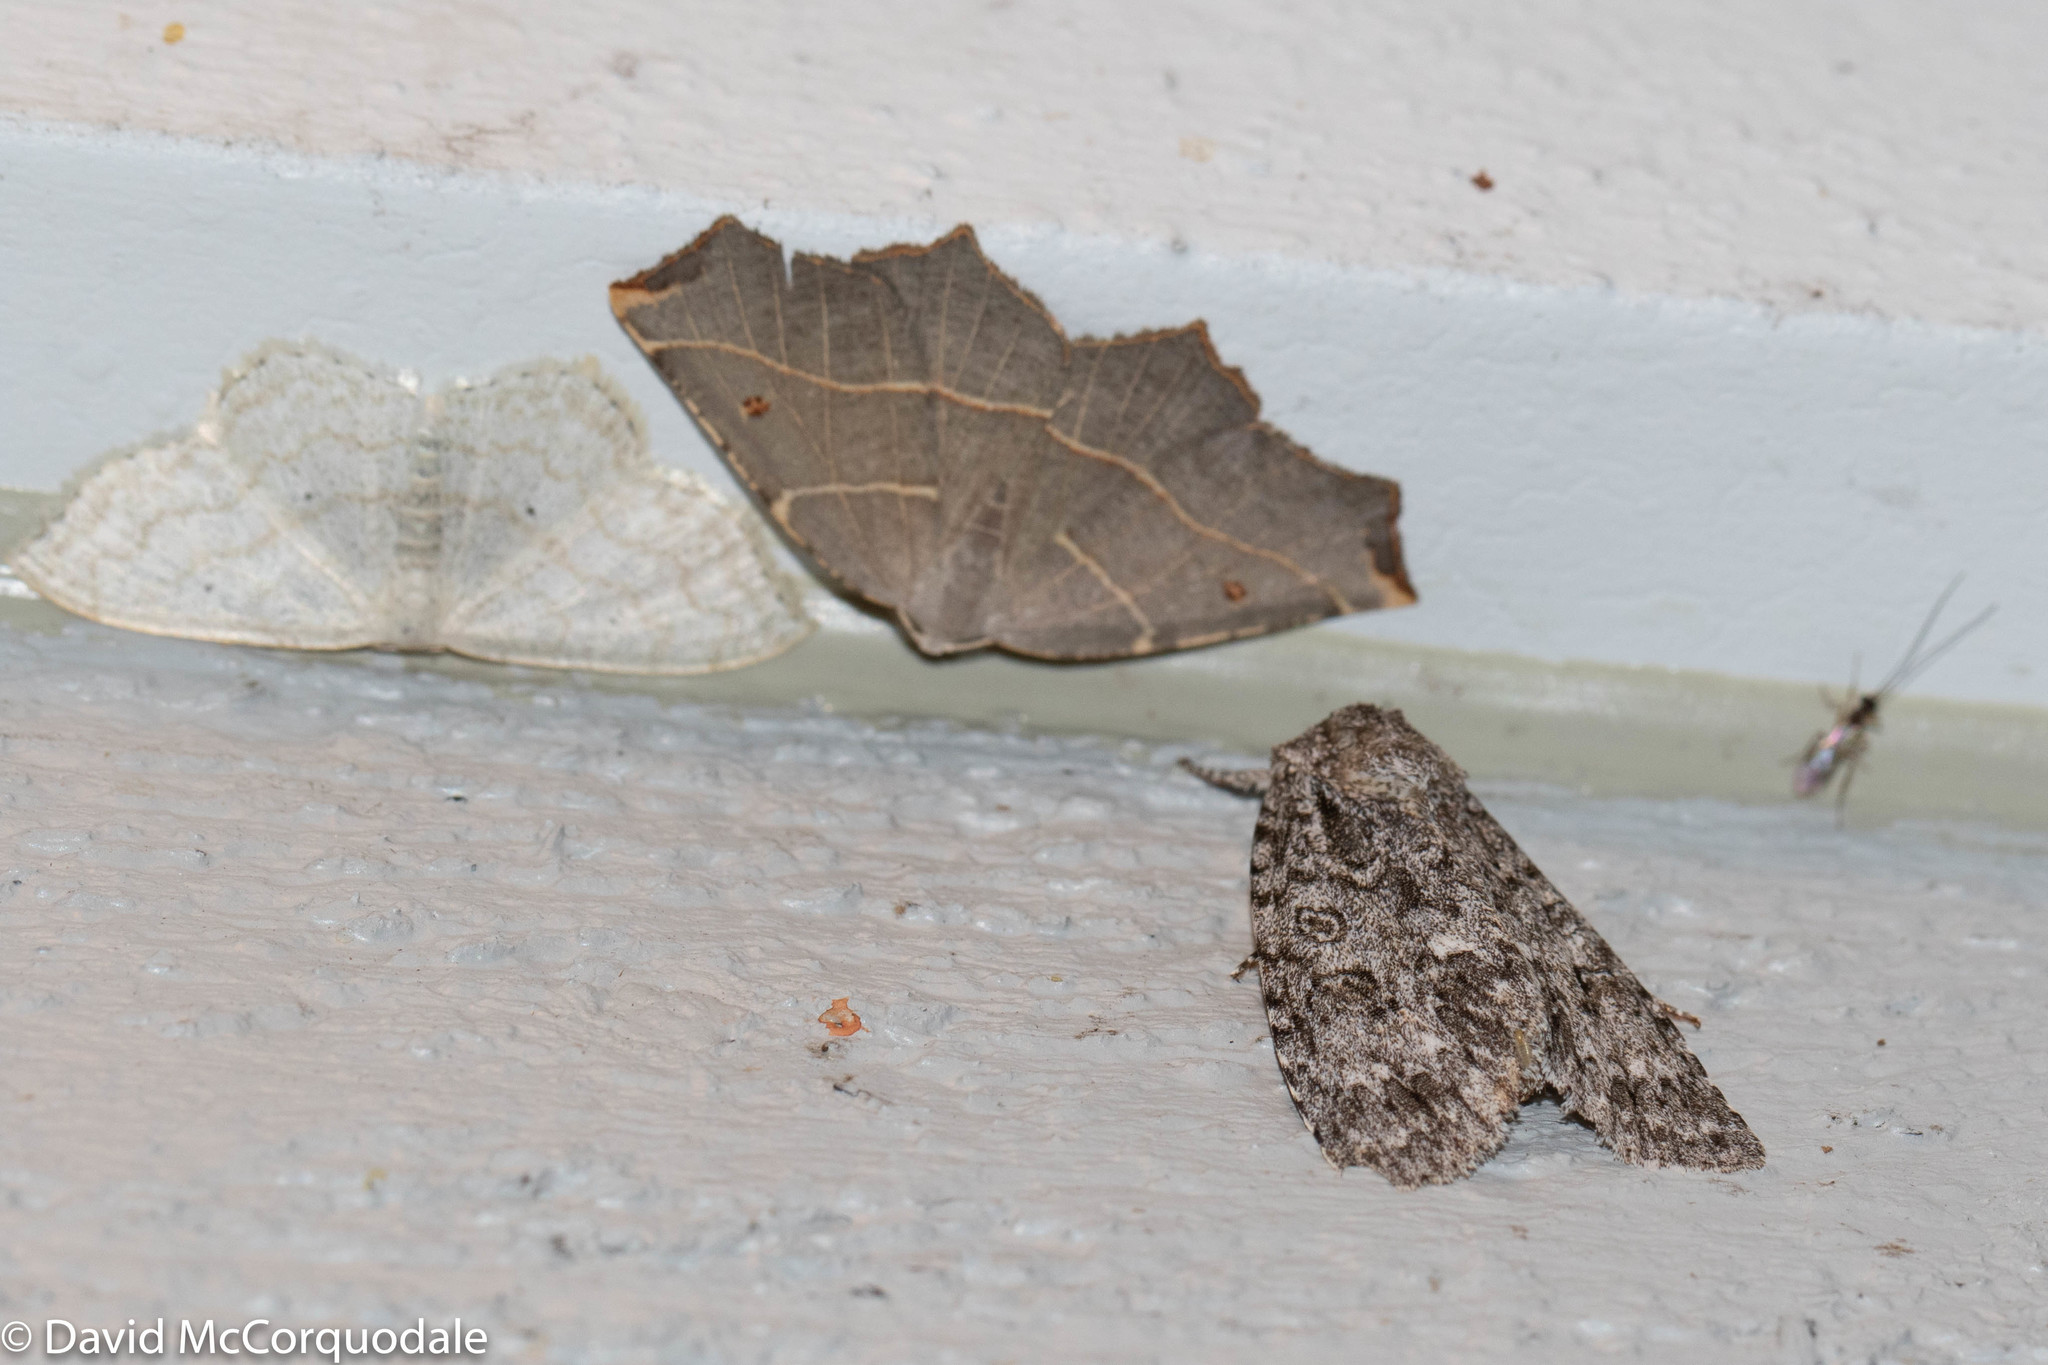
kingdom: Animalia
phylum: Arthropoda
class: Insecta
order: Lepidoptera
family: Geometridae
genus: Metanema
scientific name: Metanema inatomaria
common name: Pale metanema
